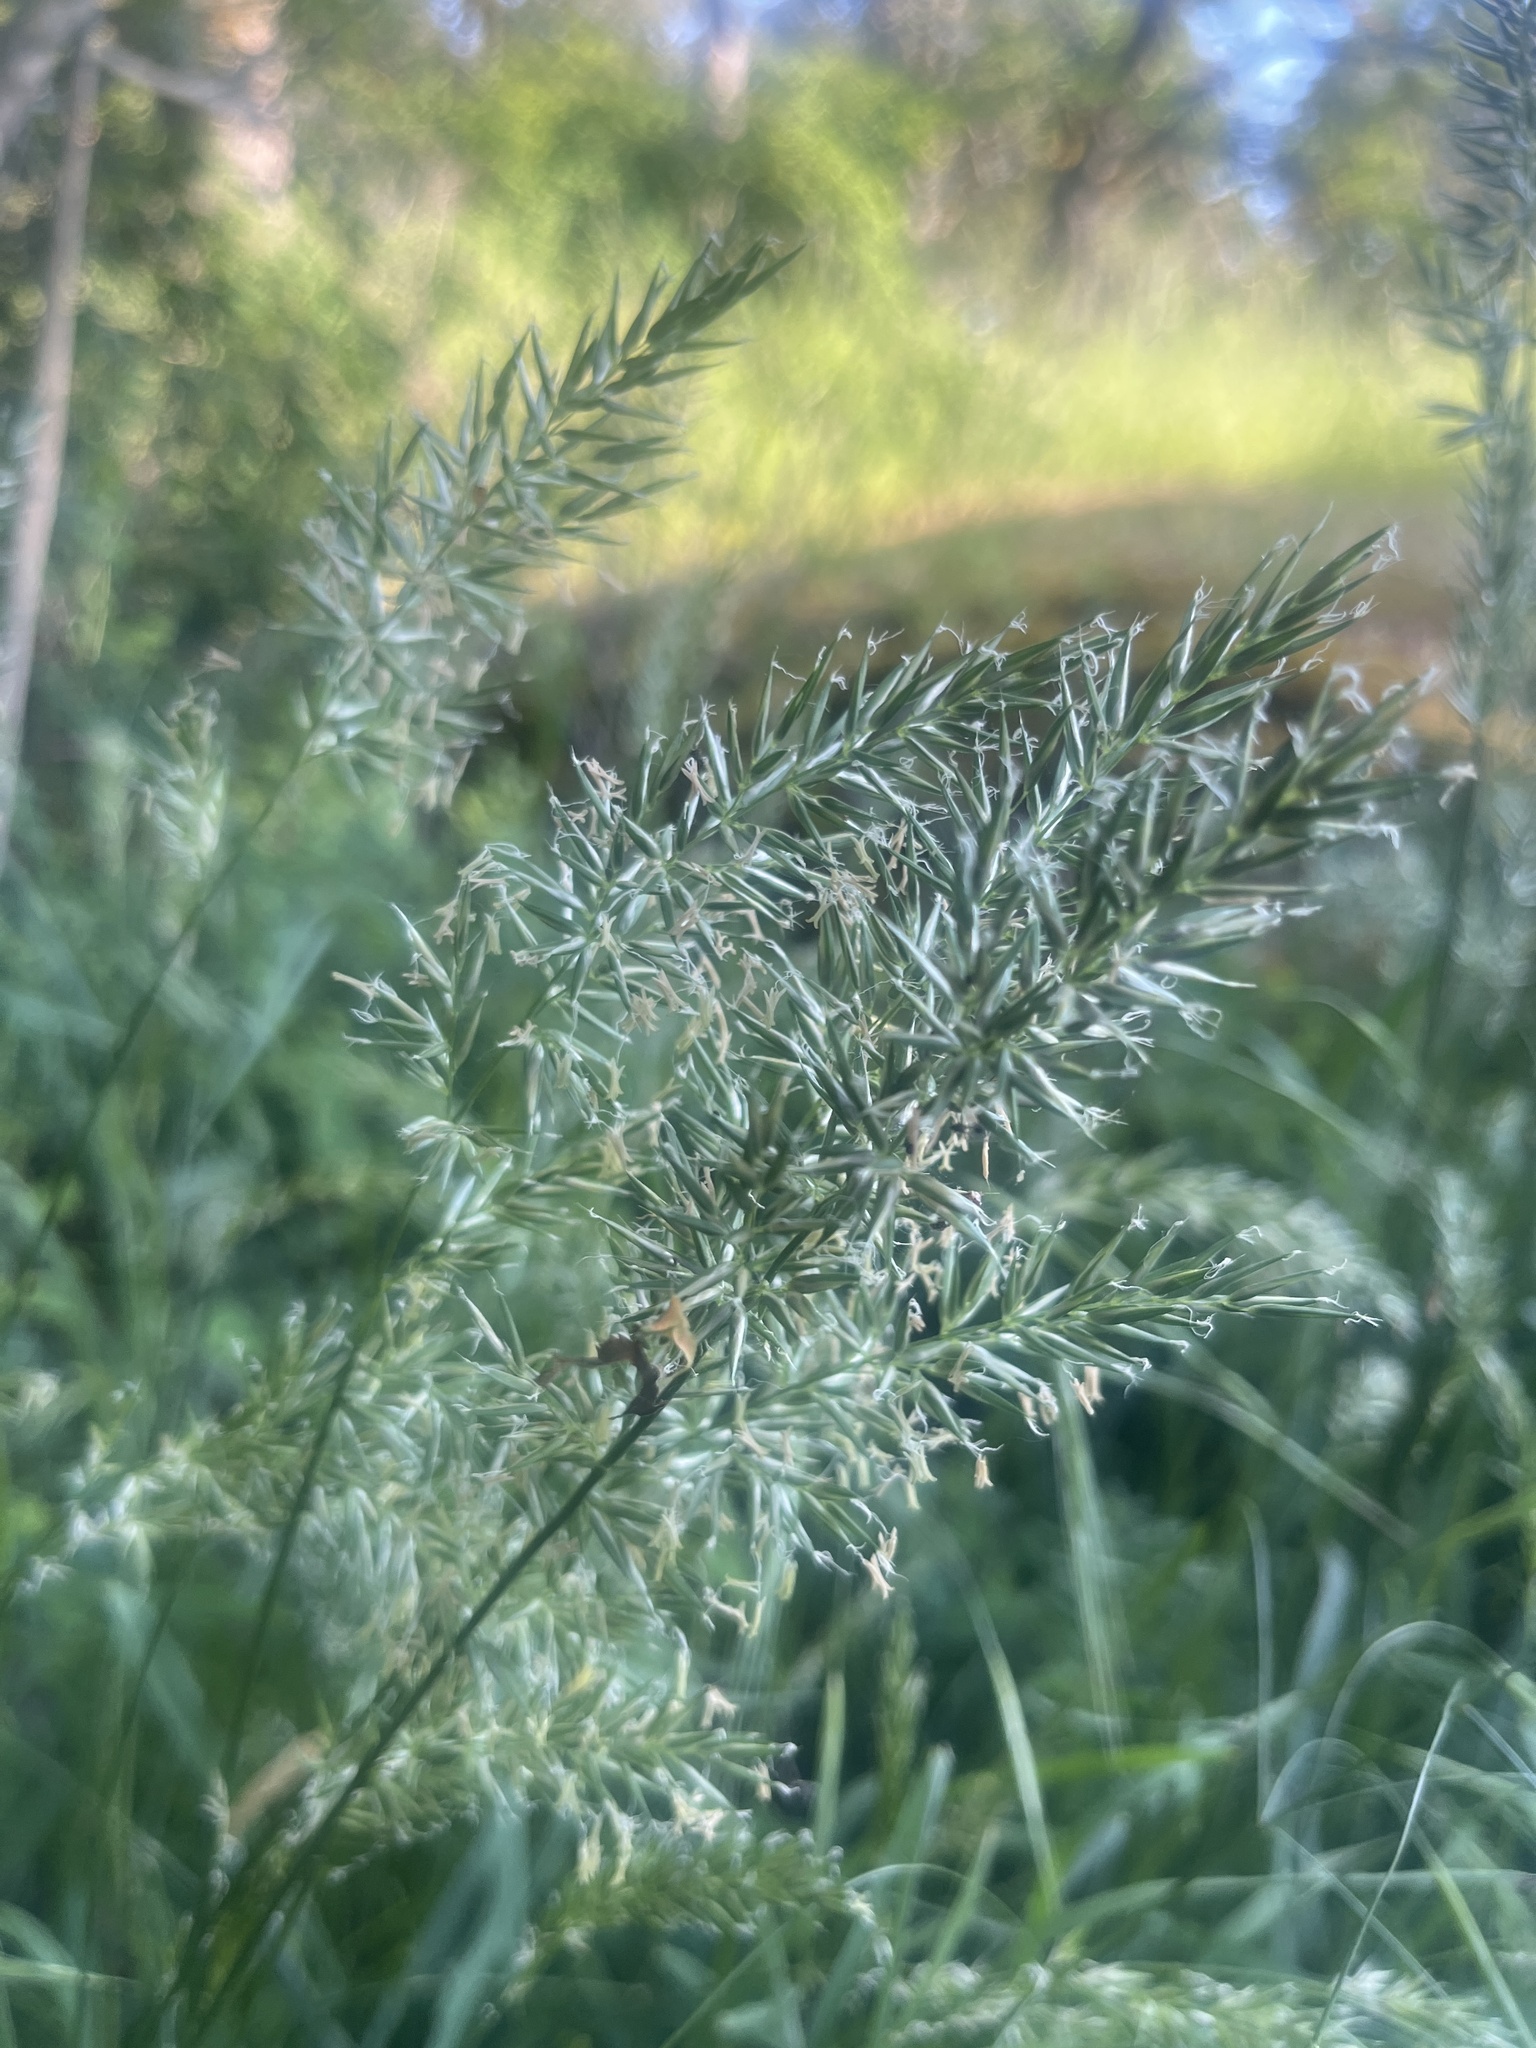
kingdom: Plantae
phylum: Tracheophyta
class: Liliopsida
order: Poales
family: Poaceae
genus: Anthoxanthum
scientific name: Anthoxanthum odoratum
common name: Sweet vernalgrass
